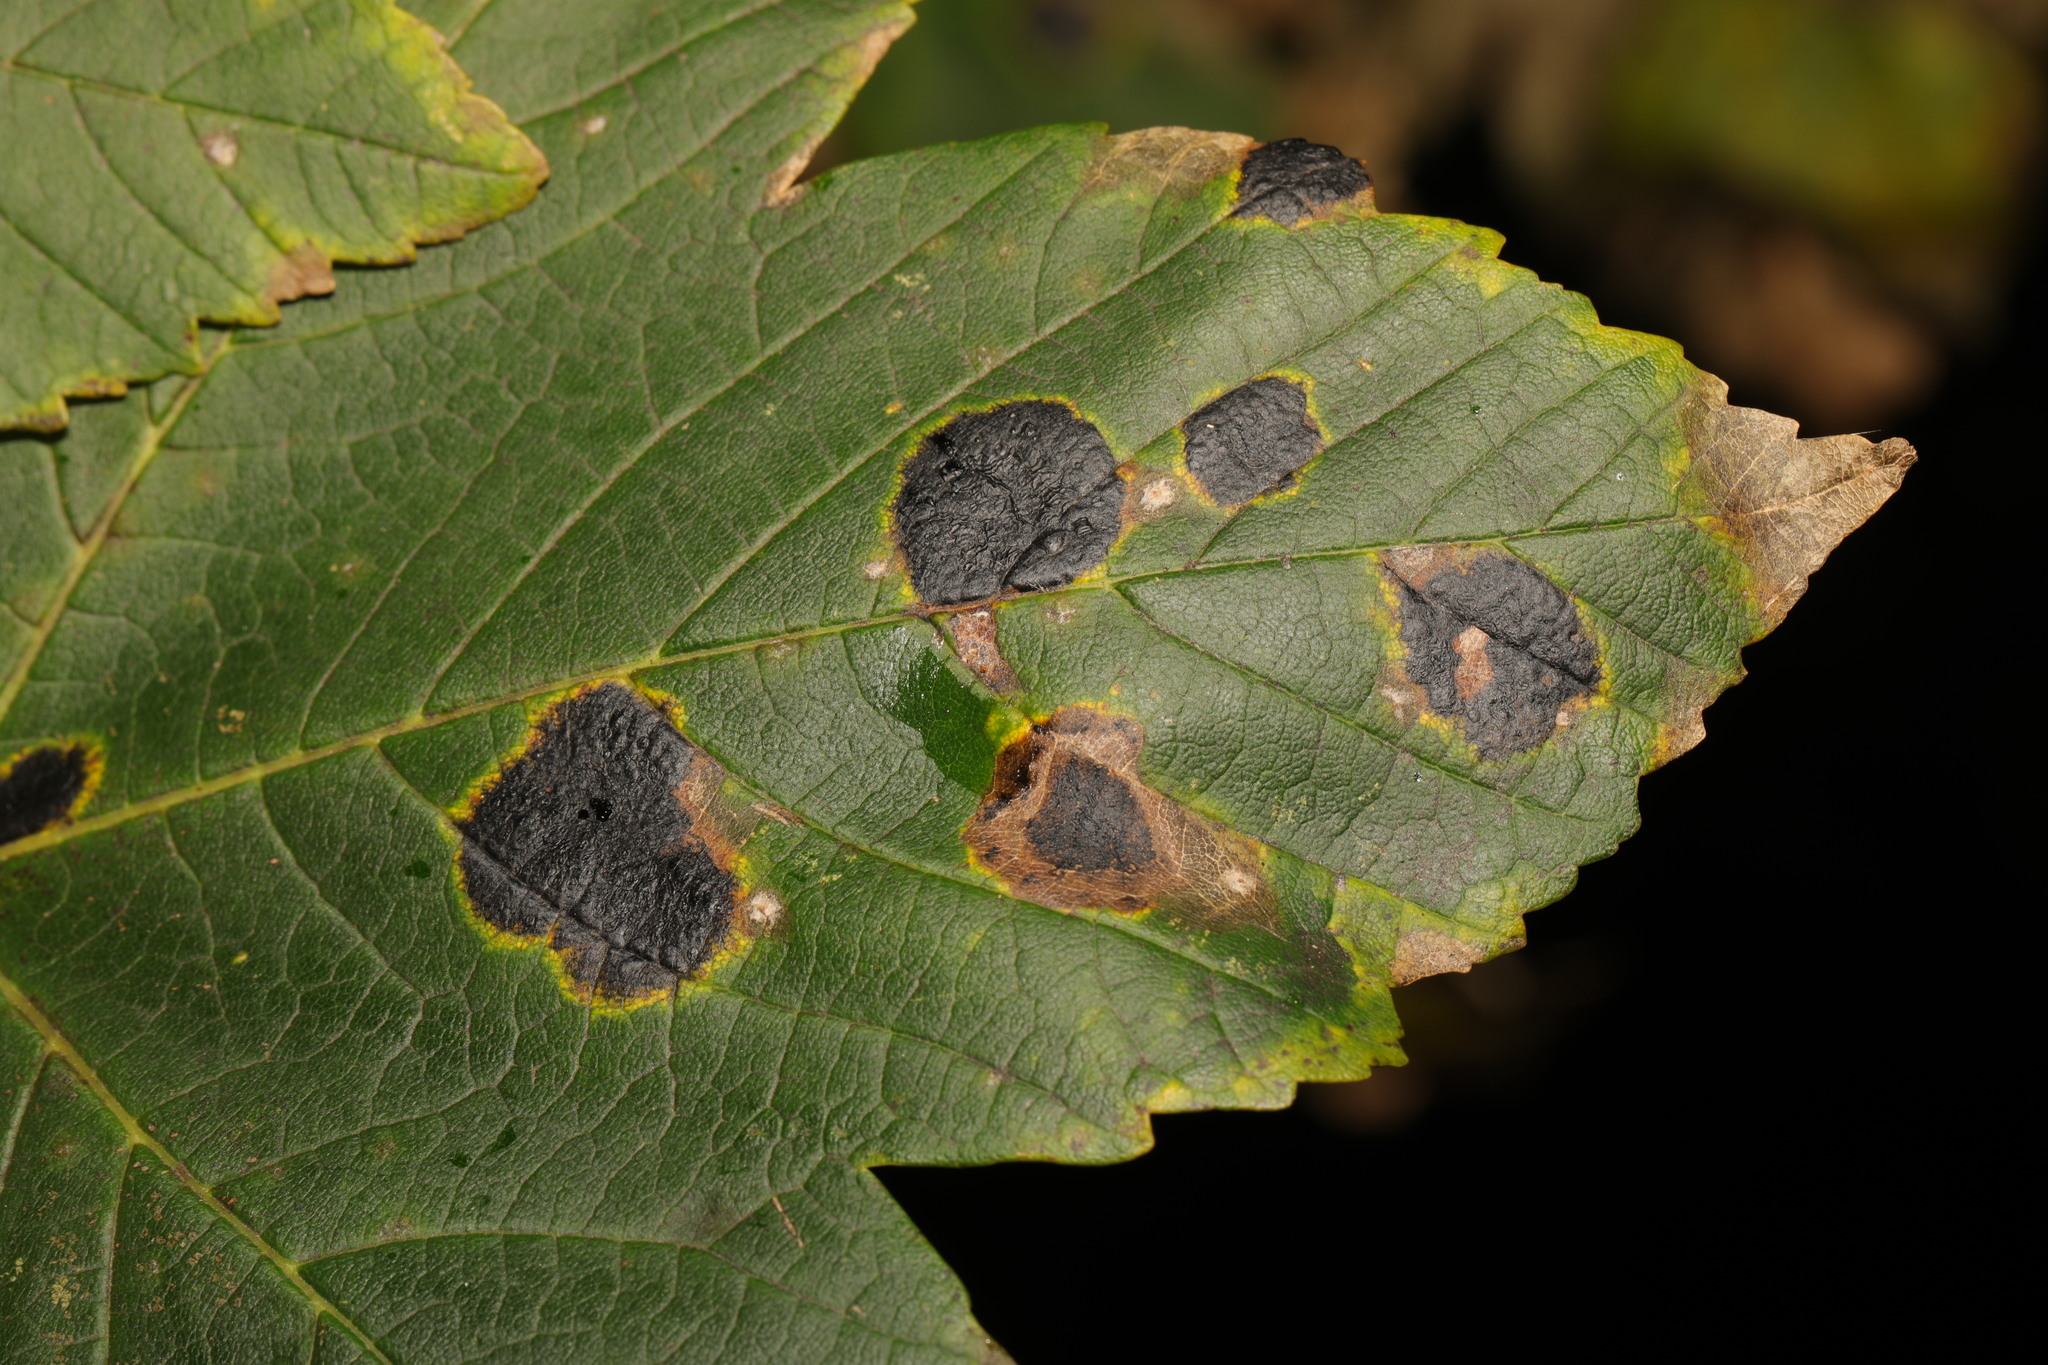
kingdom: Fungi
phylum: Ascomycota
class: Leotiomycetes
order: Rhytismatales
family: Rhytismataceae
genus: Rhytisma
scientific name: Rhytisma acerinum
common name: European tar spot
